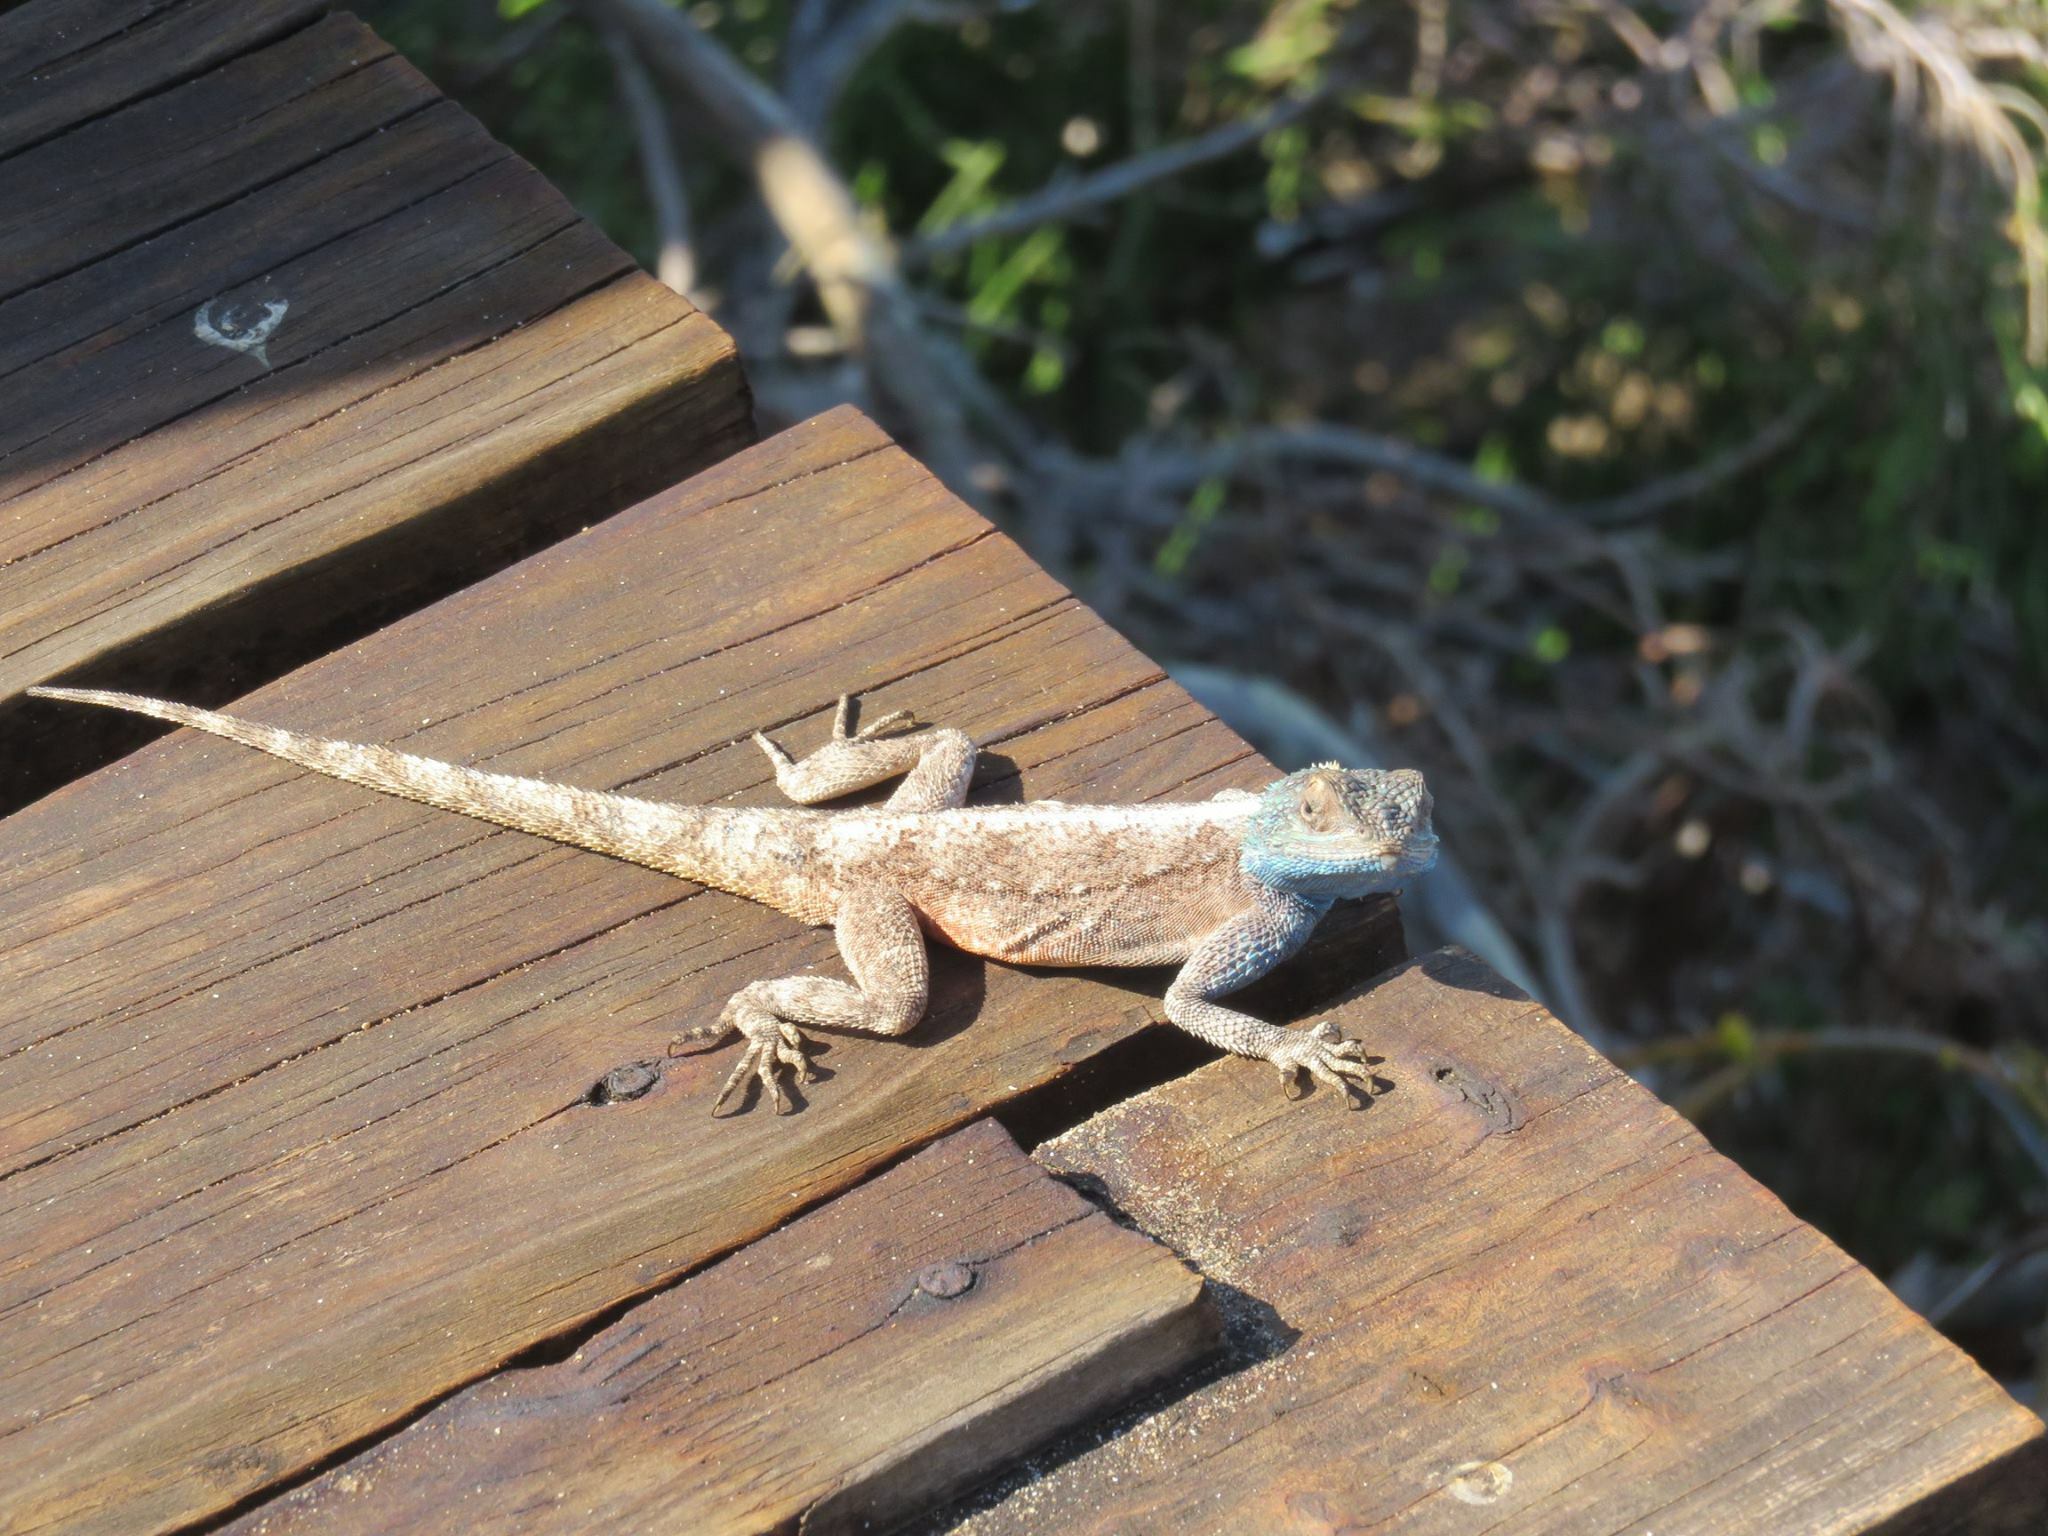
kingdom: Animalia
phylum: Chordata
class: Squamata
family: Agamidae
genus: Agama
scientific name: Agama atra
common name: Southern african rock agama
